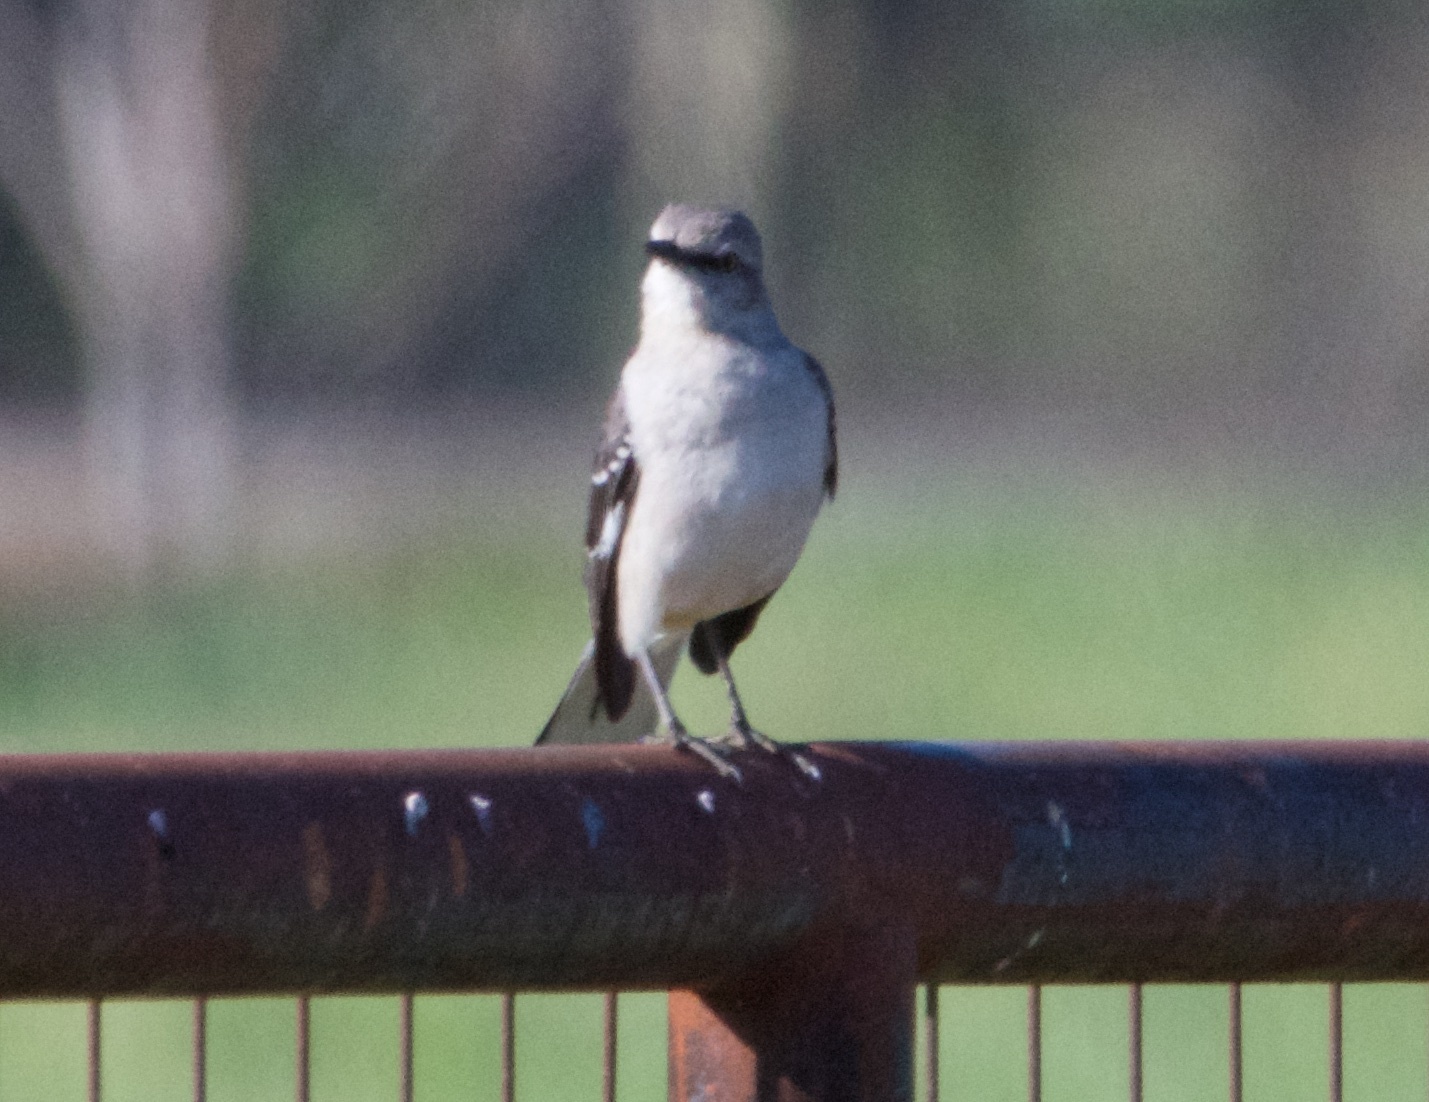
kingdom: Animalia
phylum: Chordata
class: Aves
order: Passeriformes
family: Mimidae
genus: Mimus
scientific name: Mimus polyglottos
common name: Northern mockingbird
